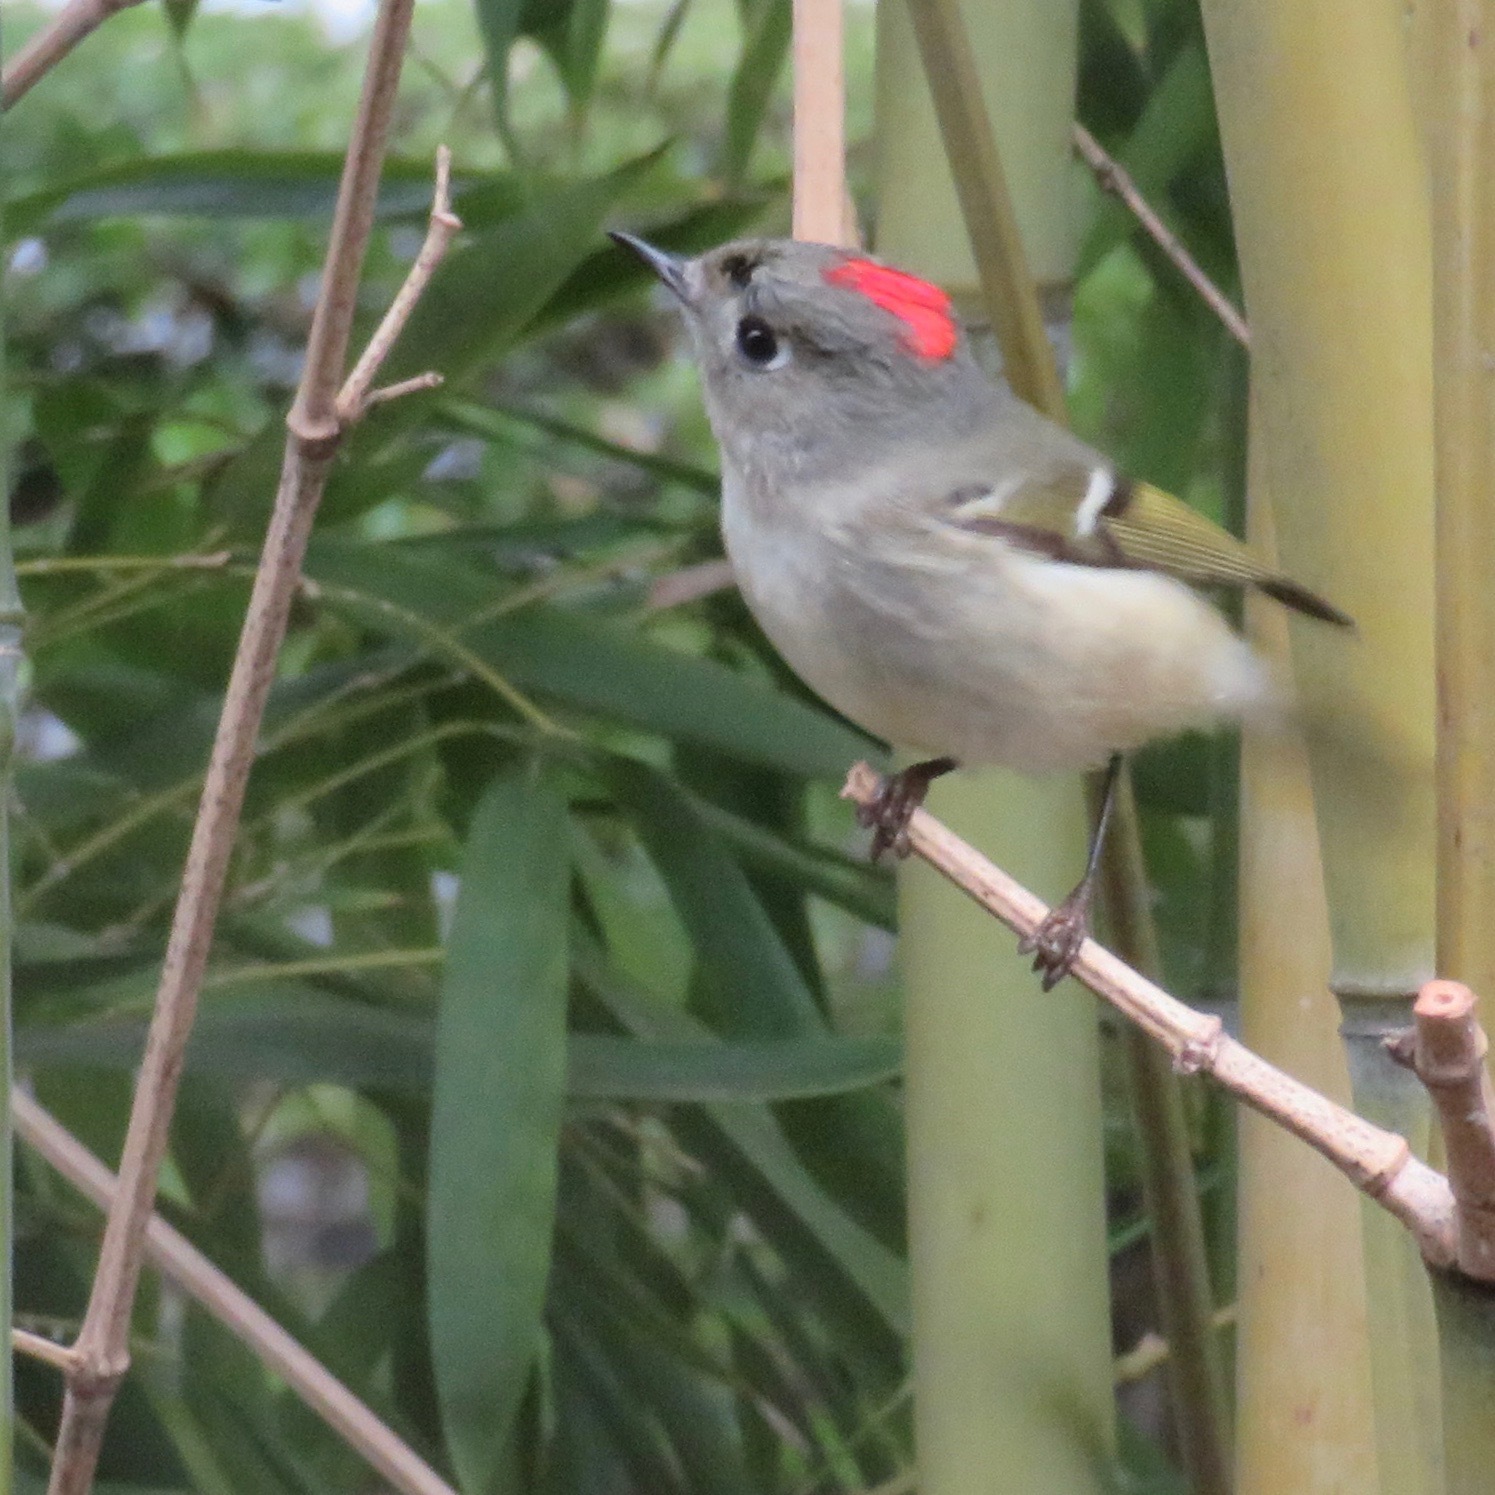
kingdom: Animalia
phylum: Chordata
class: Aves
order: Passeriformes
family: Regulidae
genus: Regulus
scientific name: Regulus calendula
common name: Ruby-crowned kinglet
